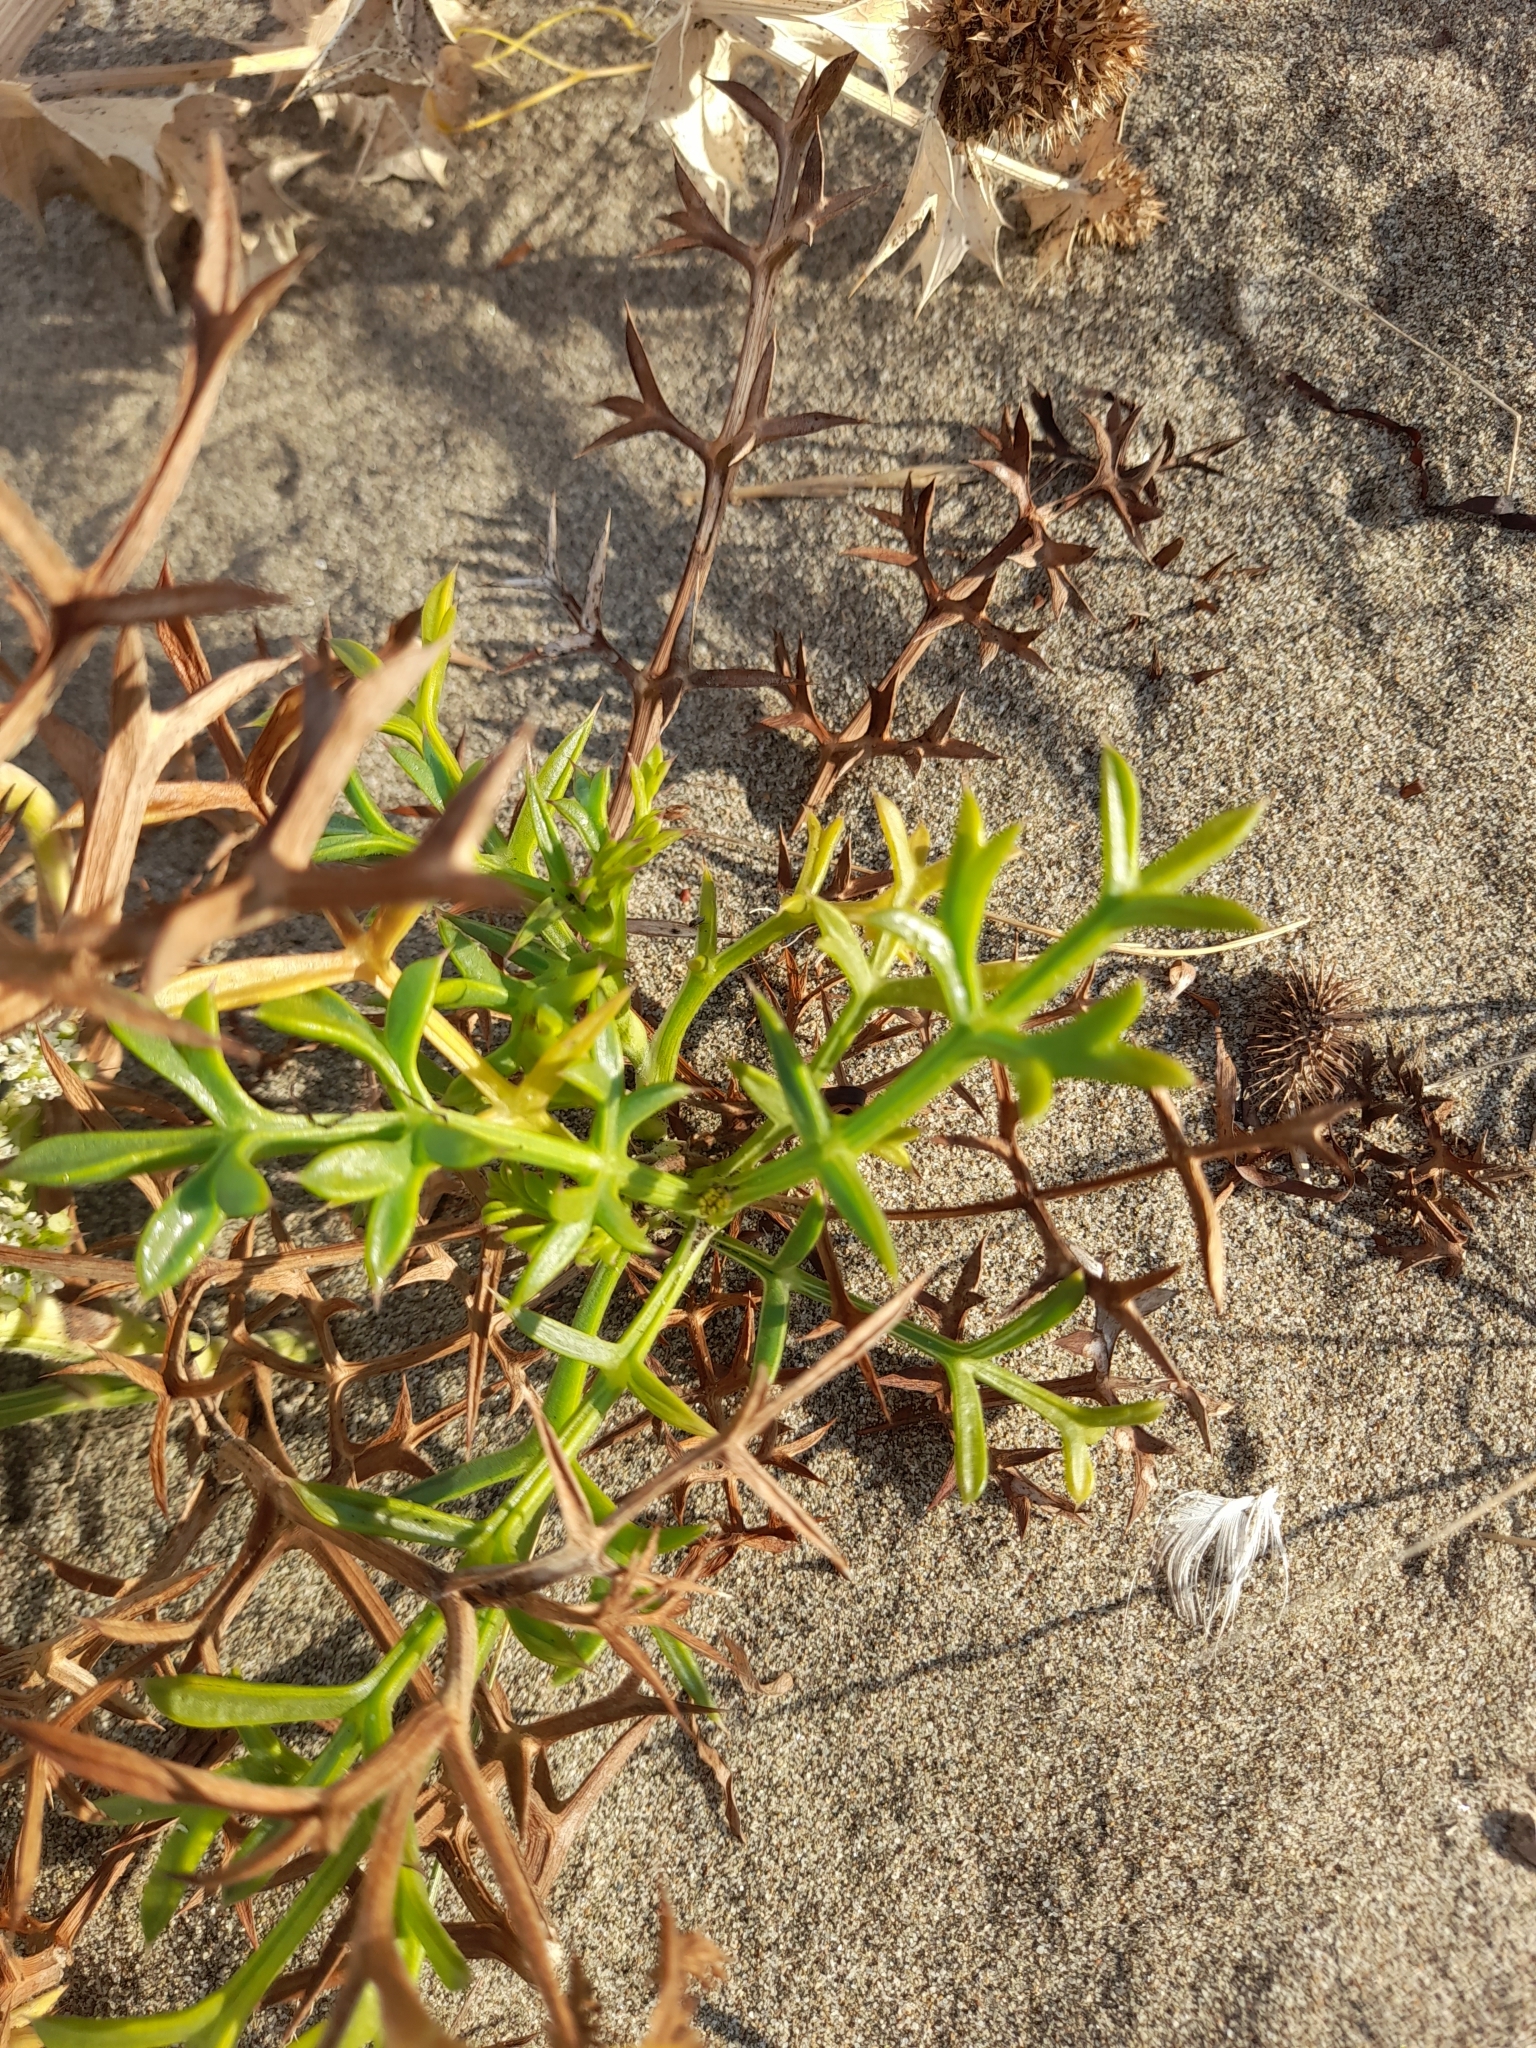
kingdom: Plantae
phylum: Tracheophyta
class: Magnoliopsida
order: Apiales
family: Apiaceae
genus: Echinophora
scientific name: Echinophora spinosa
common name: Prickly samphire
